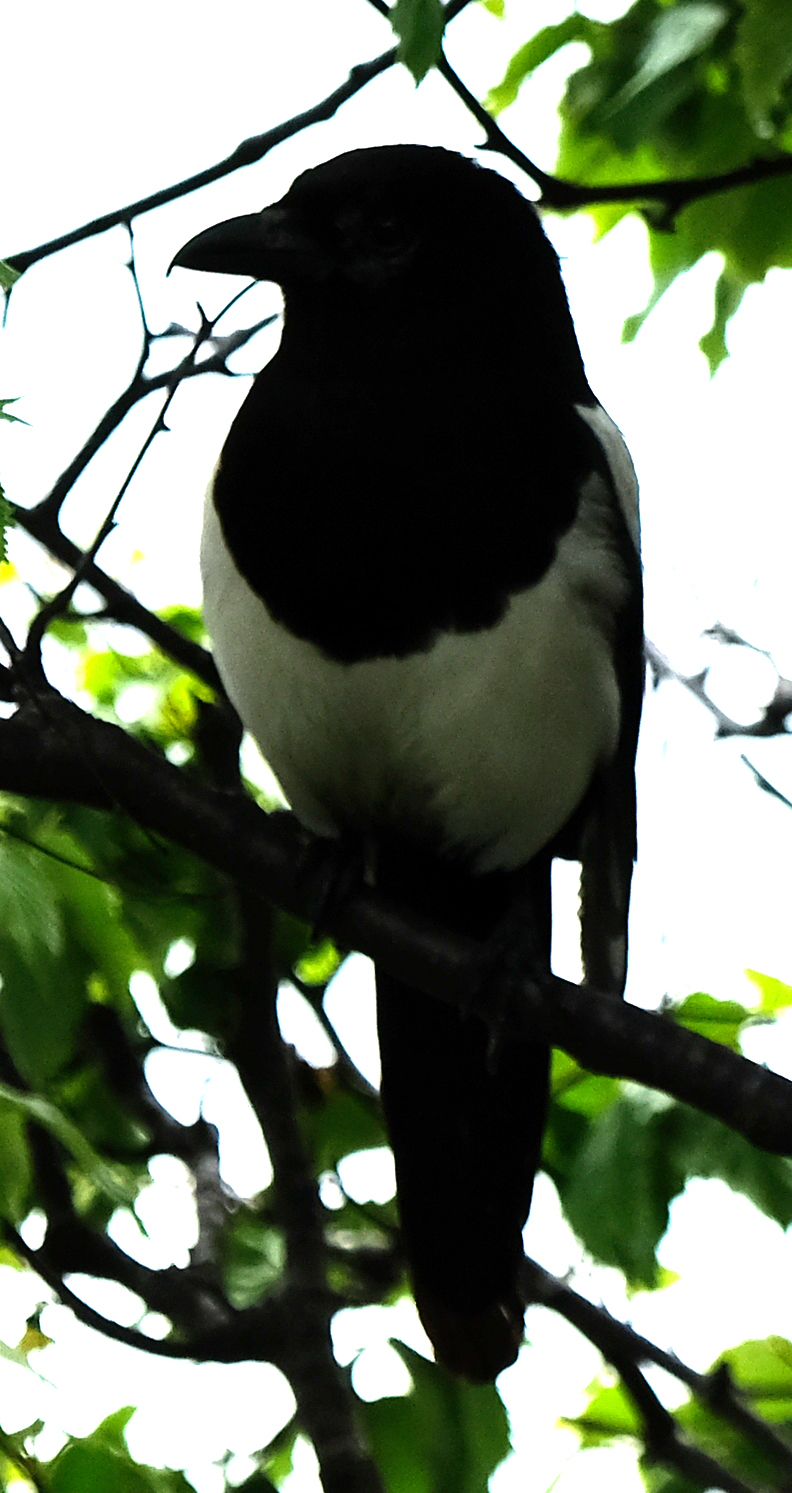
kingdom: Animalia
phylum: Chordata
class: Aves
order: Passeriformes
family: Corvidae
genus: Pica
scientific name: Pica hudsonia
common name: Black-billed magpie
